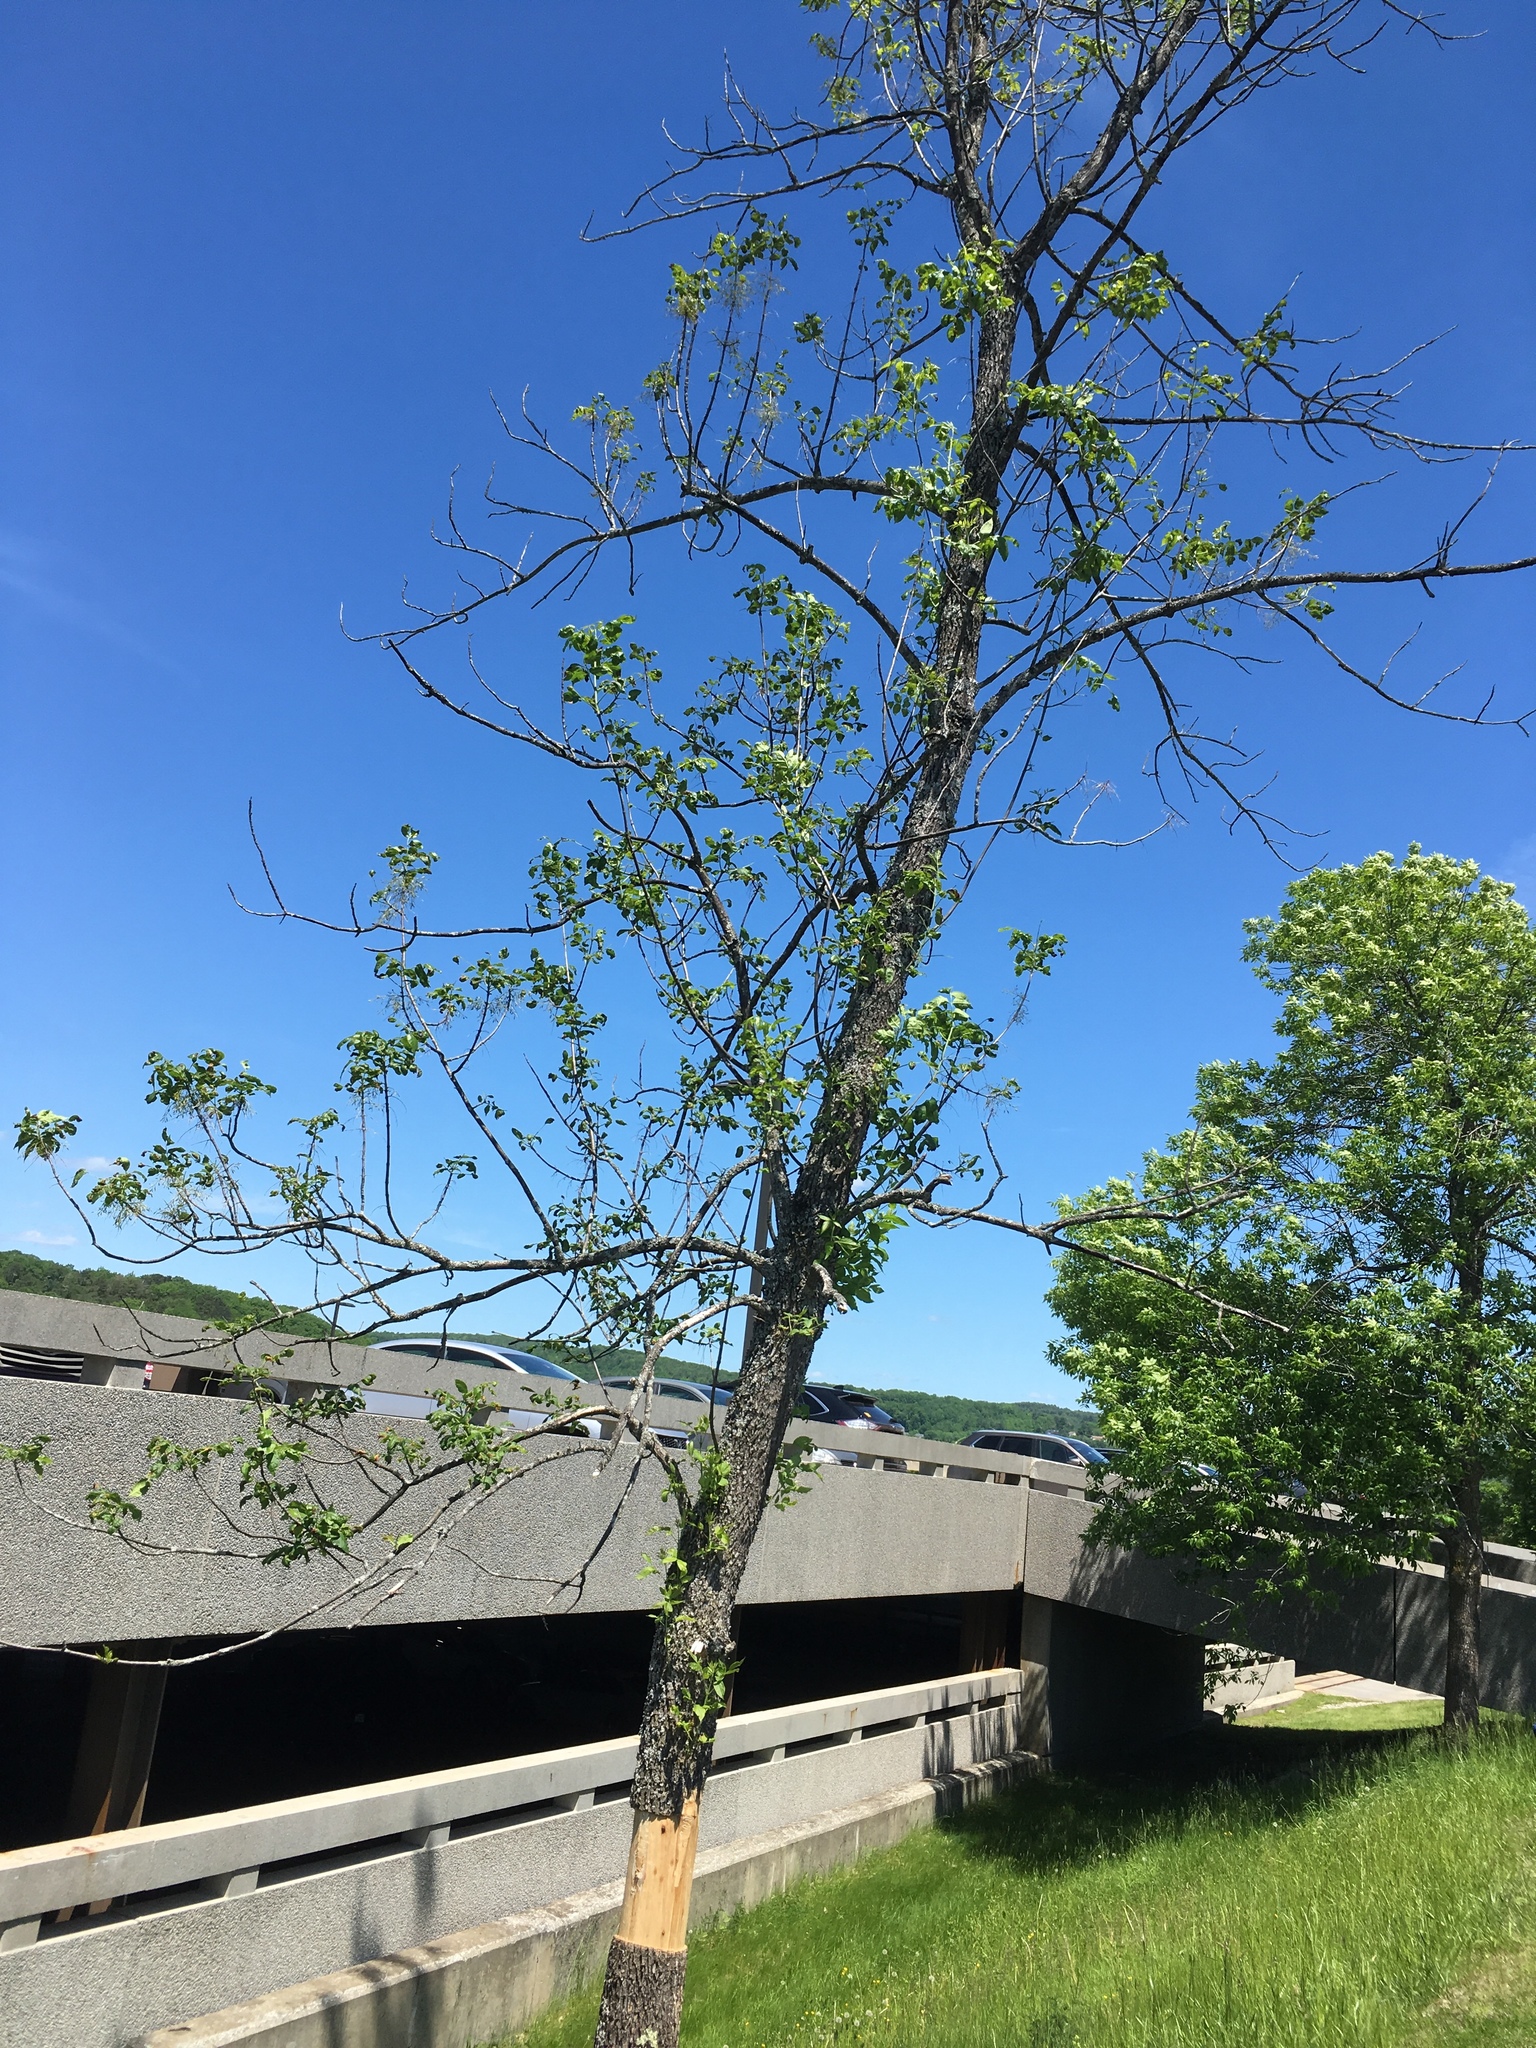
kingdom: Animalia
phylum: Arthropoda
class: Insecta
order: Coleoptera
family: Buprestidae
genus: Agrilus
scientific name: Agrilus planipennis
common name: Emerald ash borer
